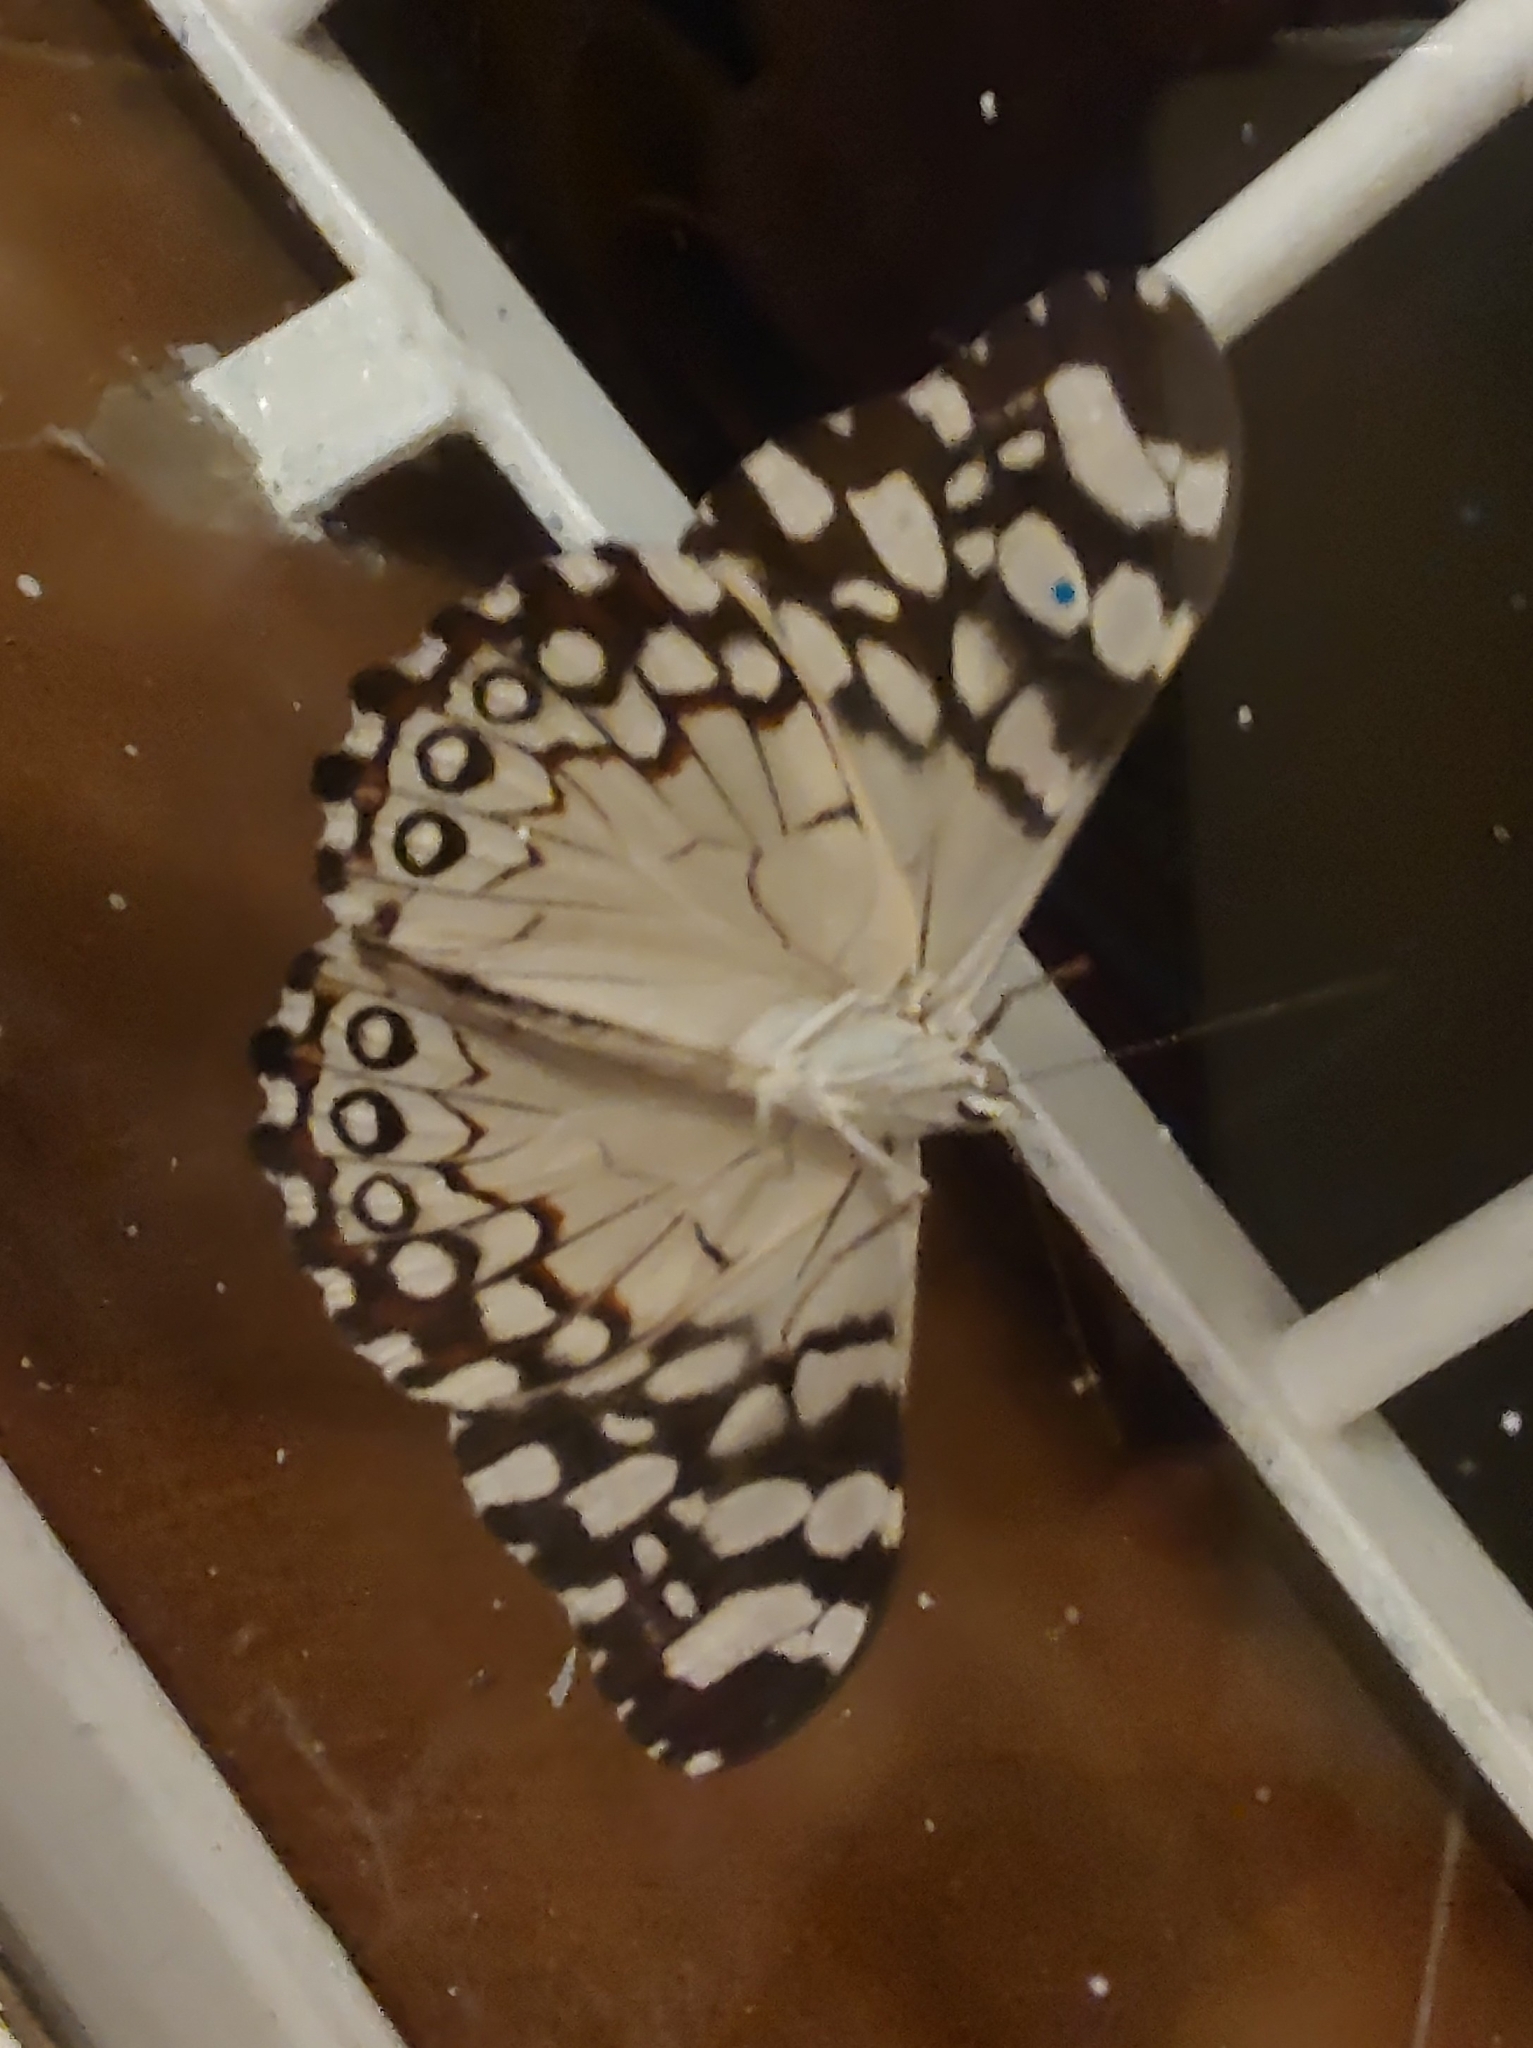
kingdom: Animalia
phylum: Arthropoda
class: Insecta
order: Lepidoptera
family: Nymphalidae
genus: Hamadryas
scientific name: Hamadryas epinome
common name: Epinome cracker
